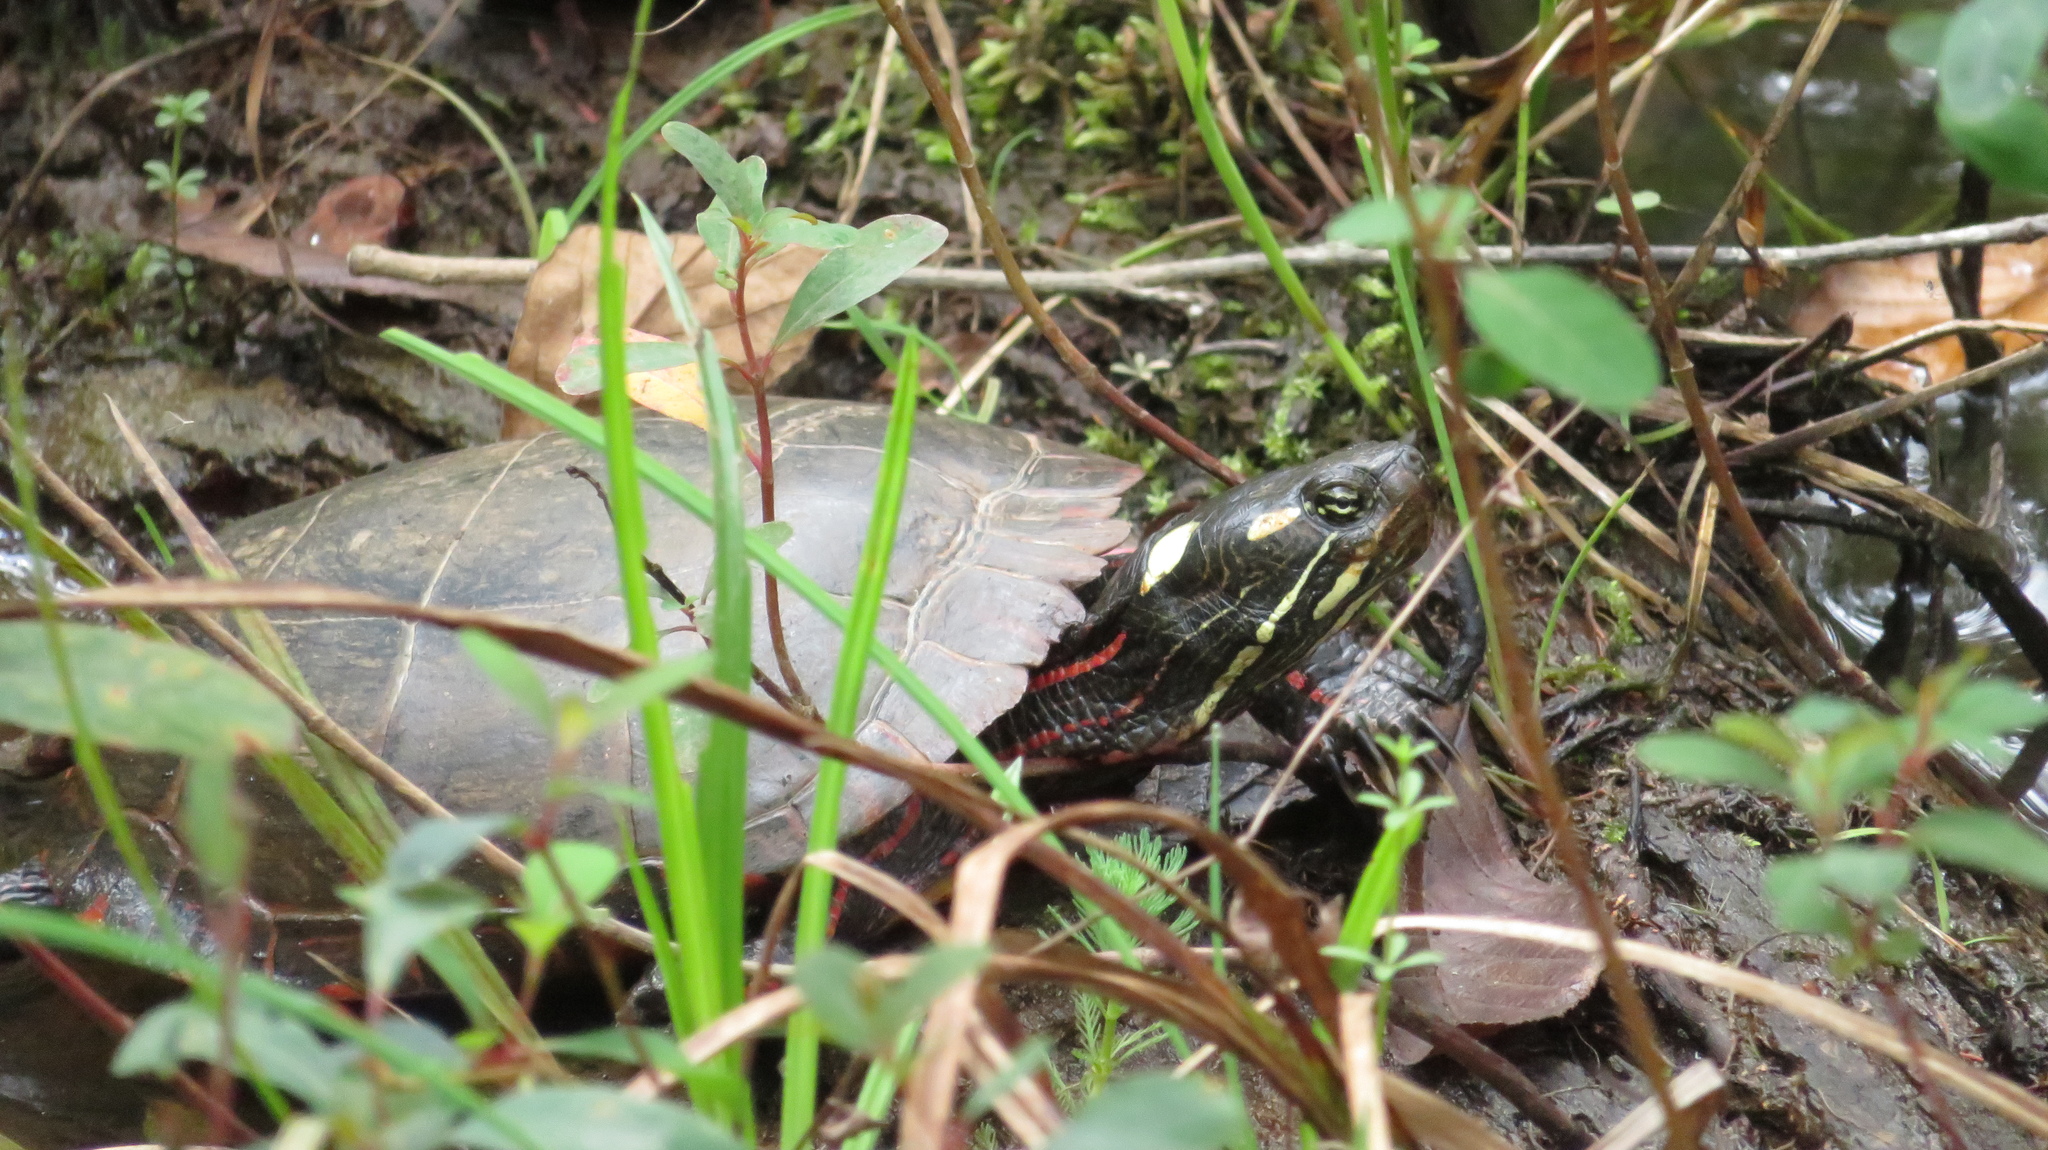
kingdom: Animalia
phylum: Chordata
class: Testudines
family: Emydidae
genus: Chrysemys
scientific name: Chrysemys picta
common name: Painted turtle
